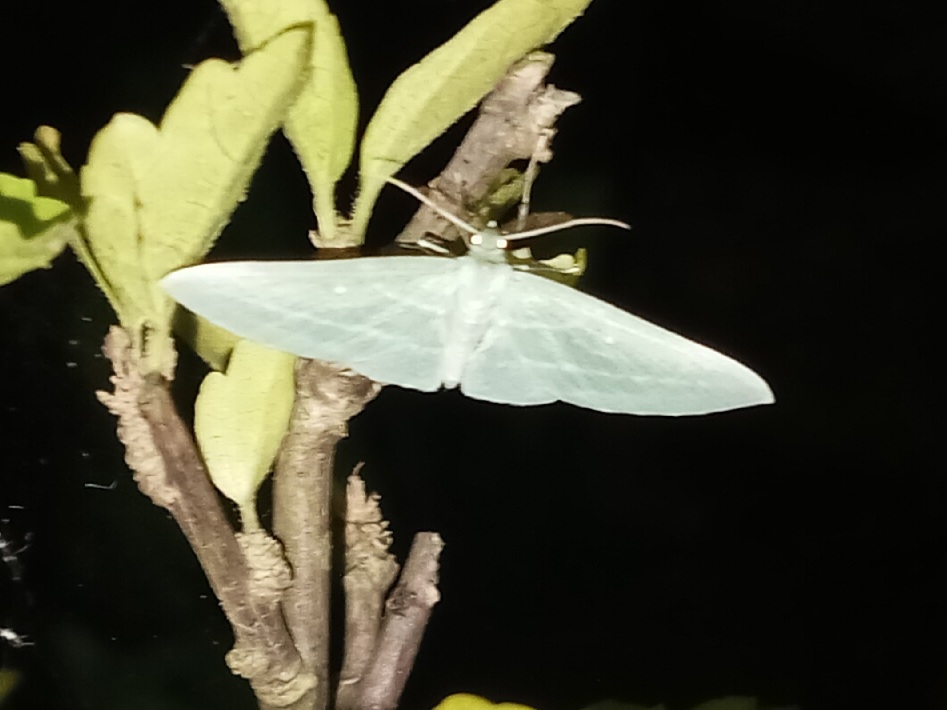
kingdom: Animalia
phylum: Arthropoda
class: Insecta
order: Lepidoptera
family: Geometridae
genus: Dyspteris
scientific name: Dyspteris abortivaria
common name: Bad-wing
